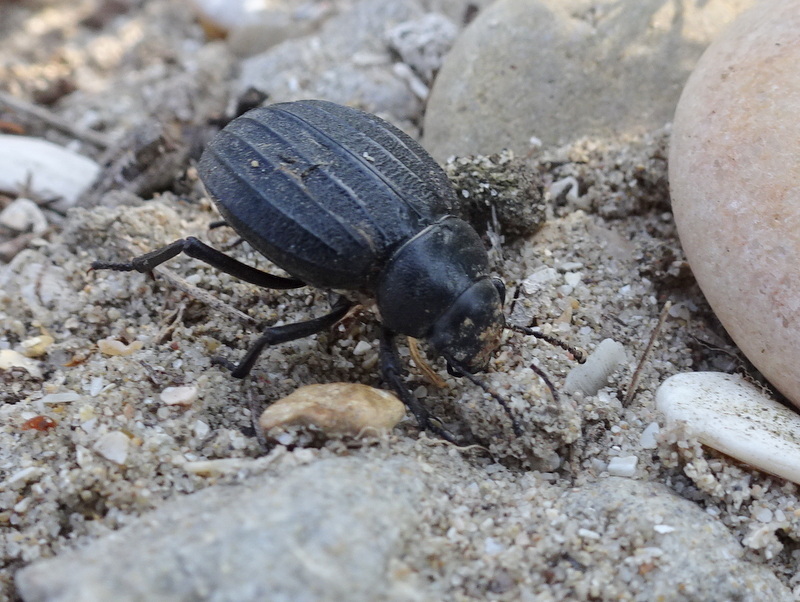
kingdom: Animalia
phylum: Arthropoda
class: Insecta
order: Coleoptera
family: Tenebrionidae
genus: Pimelia
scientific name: Pimelia muricata
